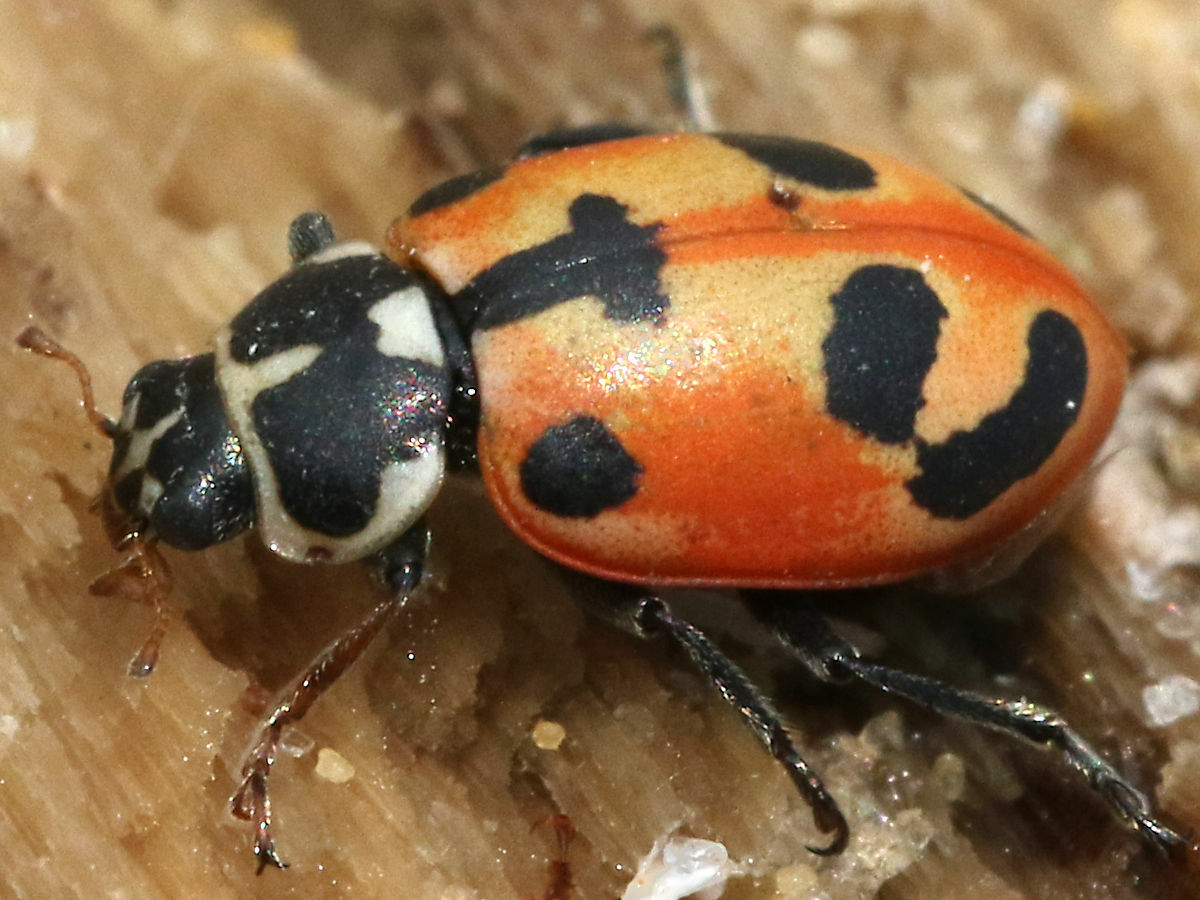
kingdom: Animalia
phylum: Arthropoda
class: Insecta
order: Coleoptera
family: Coccinellidae
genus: Hippodamia
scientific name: Hippodamia parenthesis
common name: Parenthesis lady beetle
